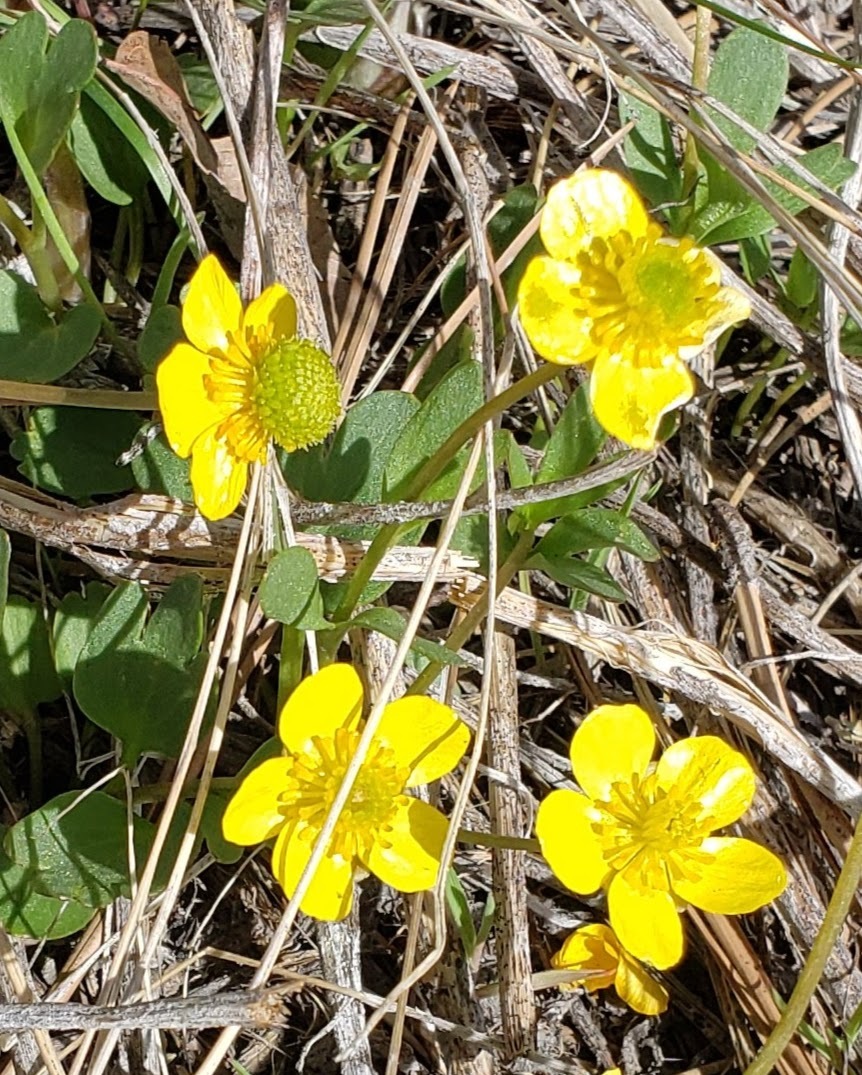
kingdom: Plantae
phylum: Tracheophyta
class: Magnoliopsida
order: Ranunculales
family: Ranunculaceae
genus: Ranunculus
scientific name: Ranunculus glaberrimus
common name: Sagebrush buttercup
